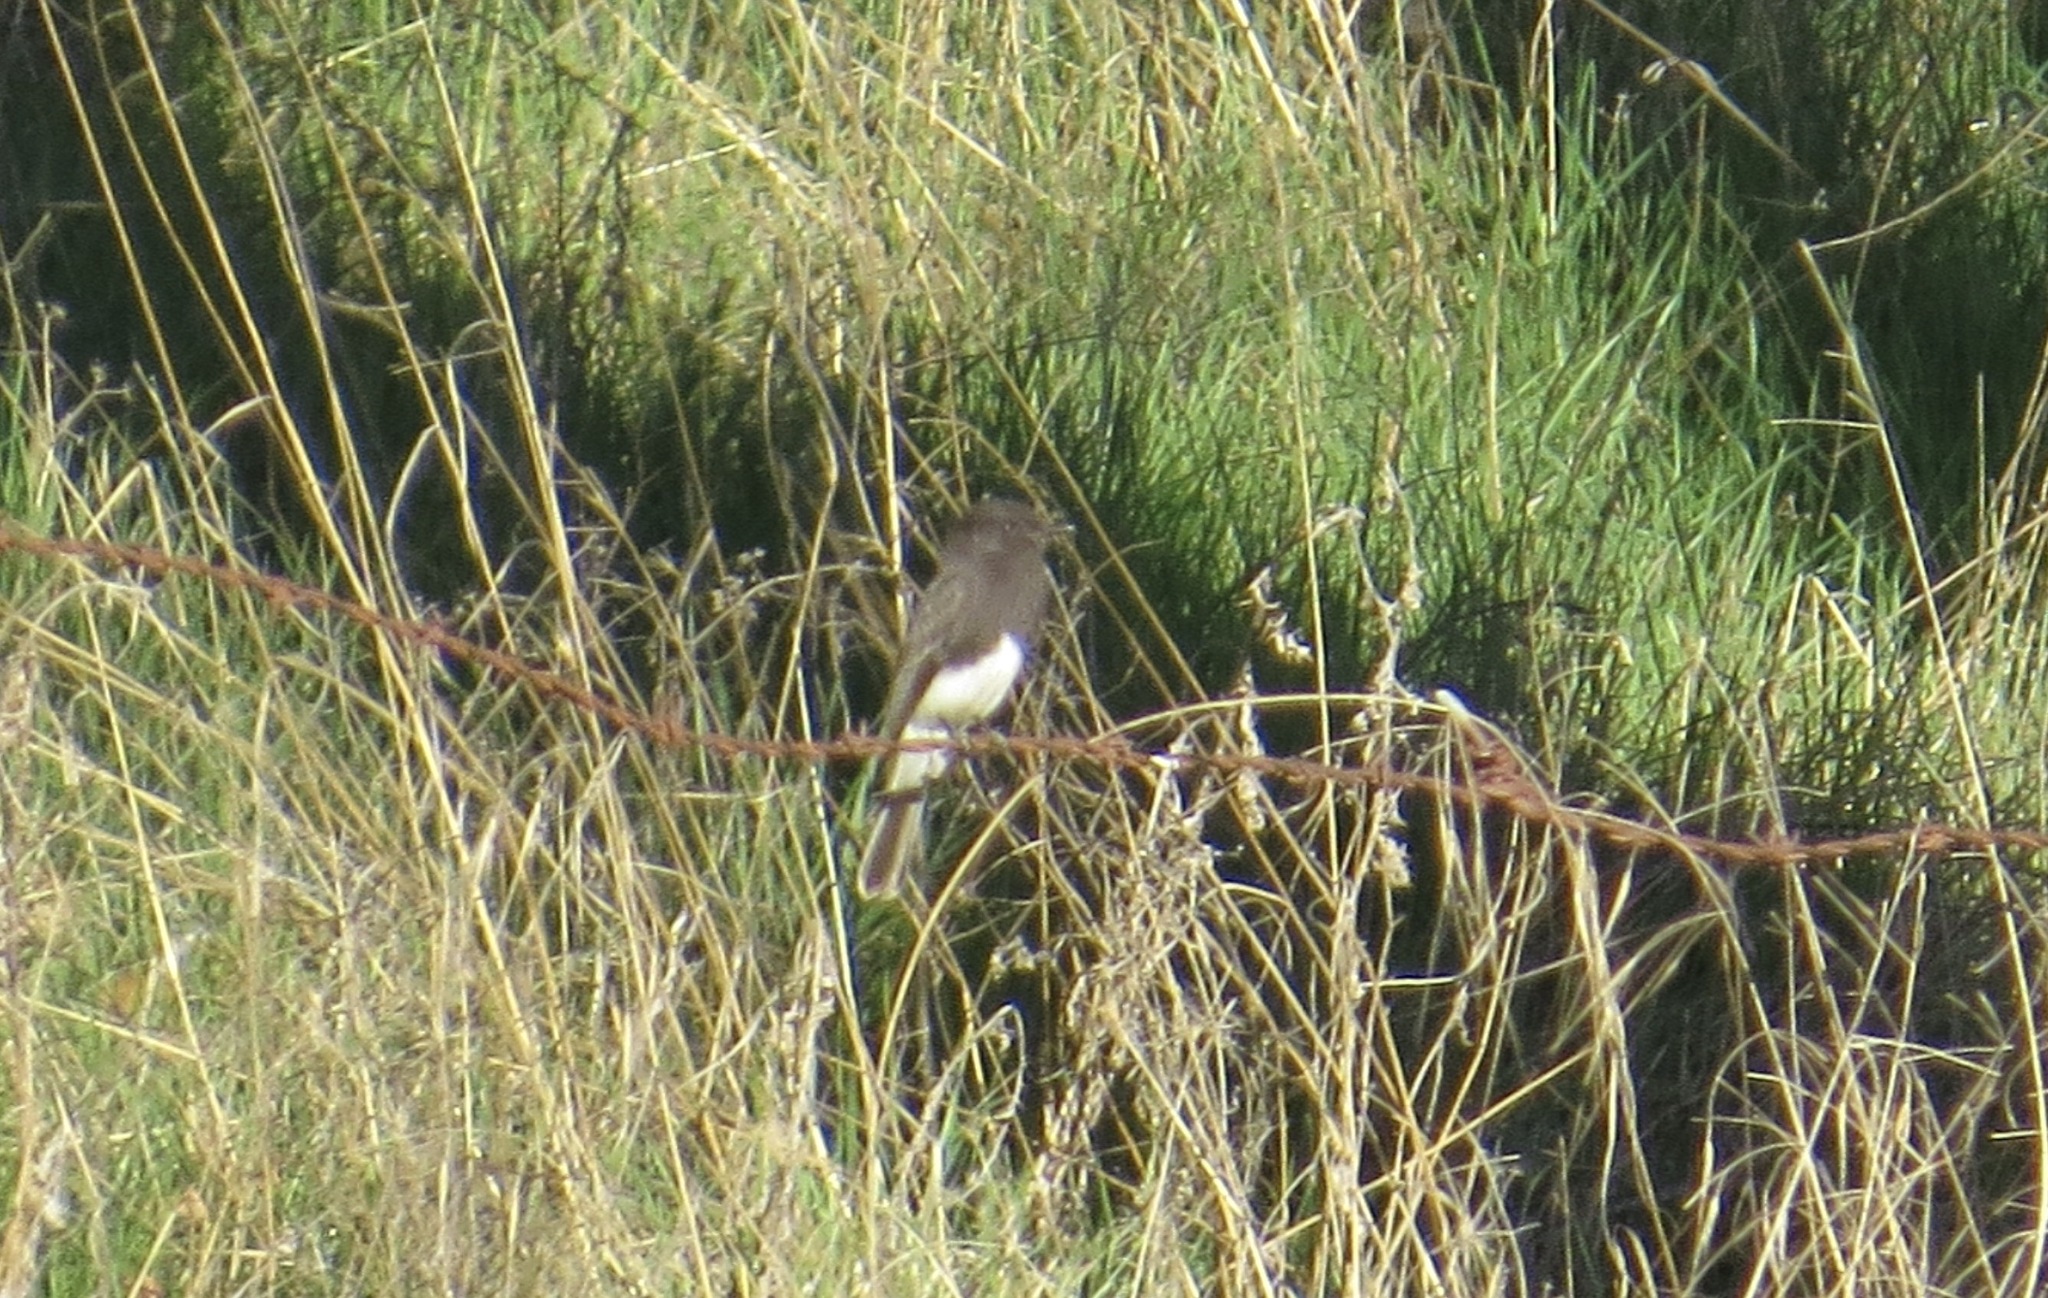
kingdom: Animalia
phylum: Chordata
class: Aves
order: Passeriformes
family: Tyrannidae
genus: Sayornis
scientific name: Sayornis nigricans
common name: Black phoebe
